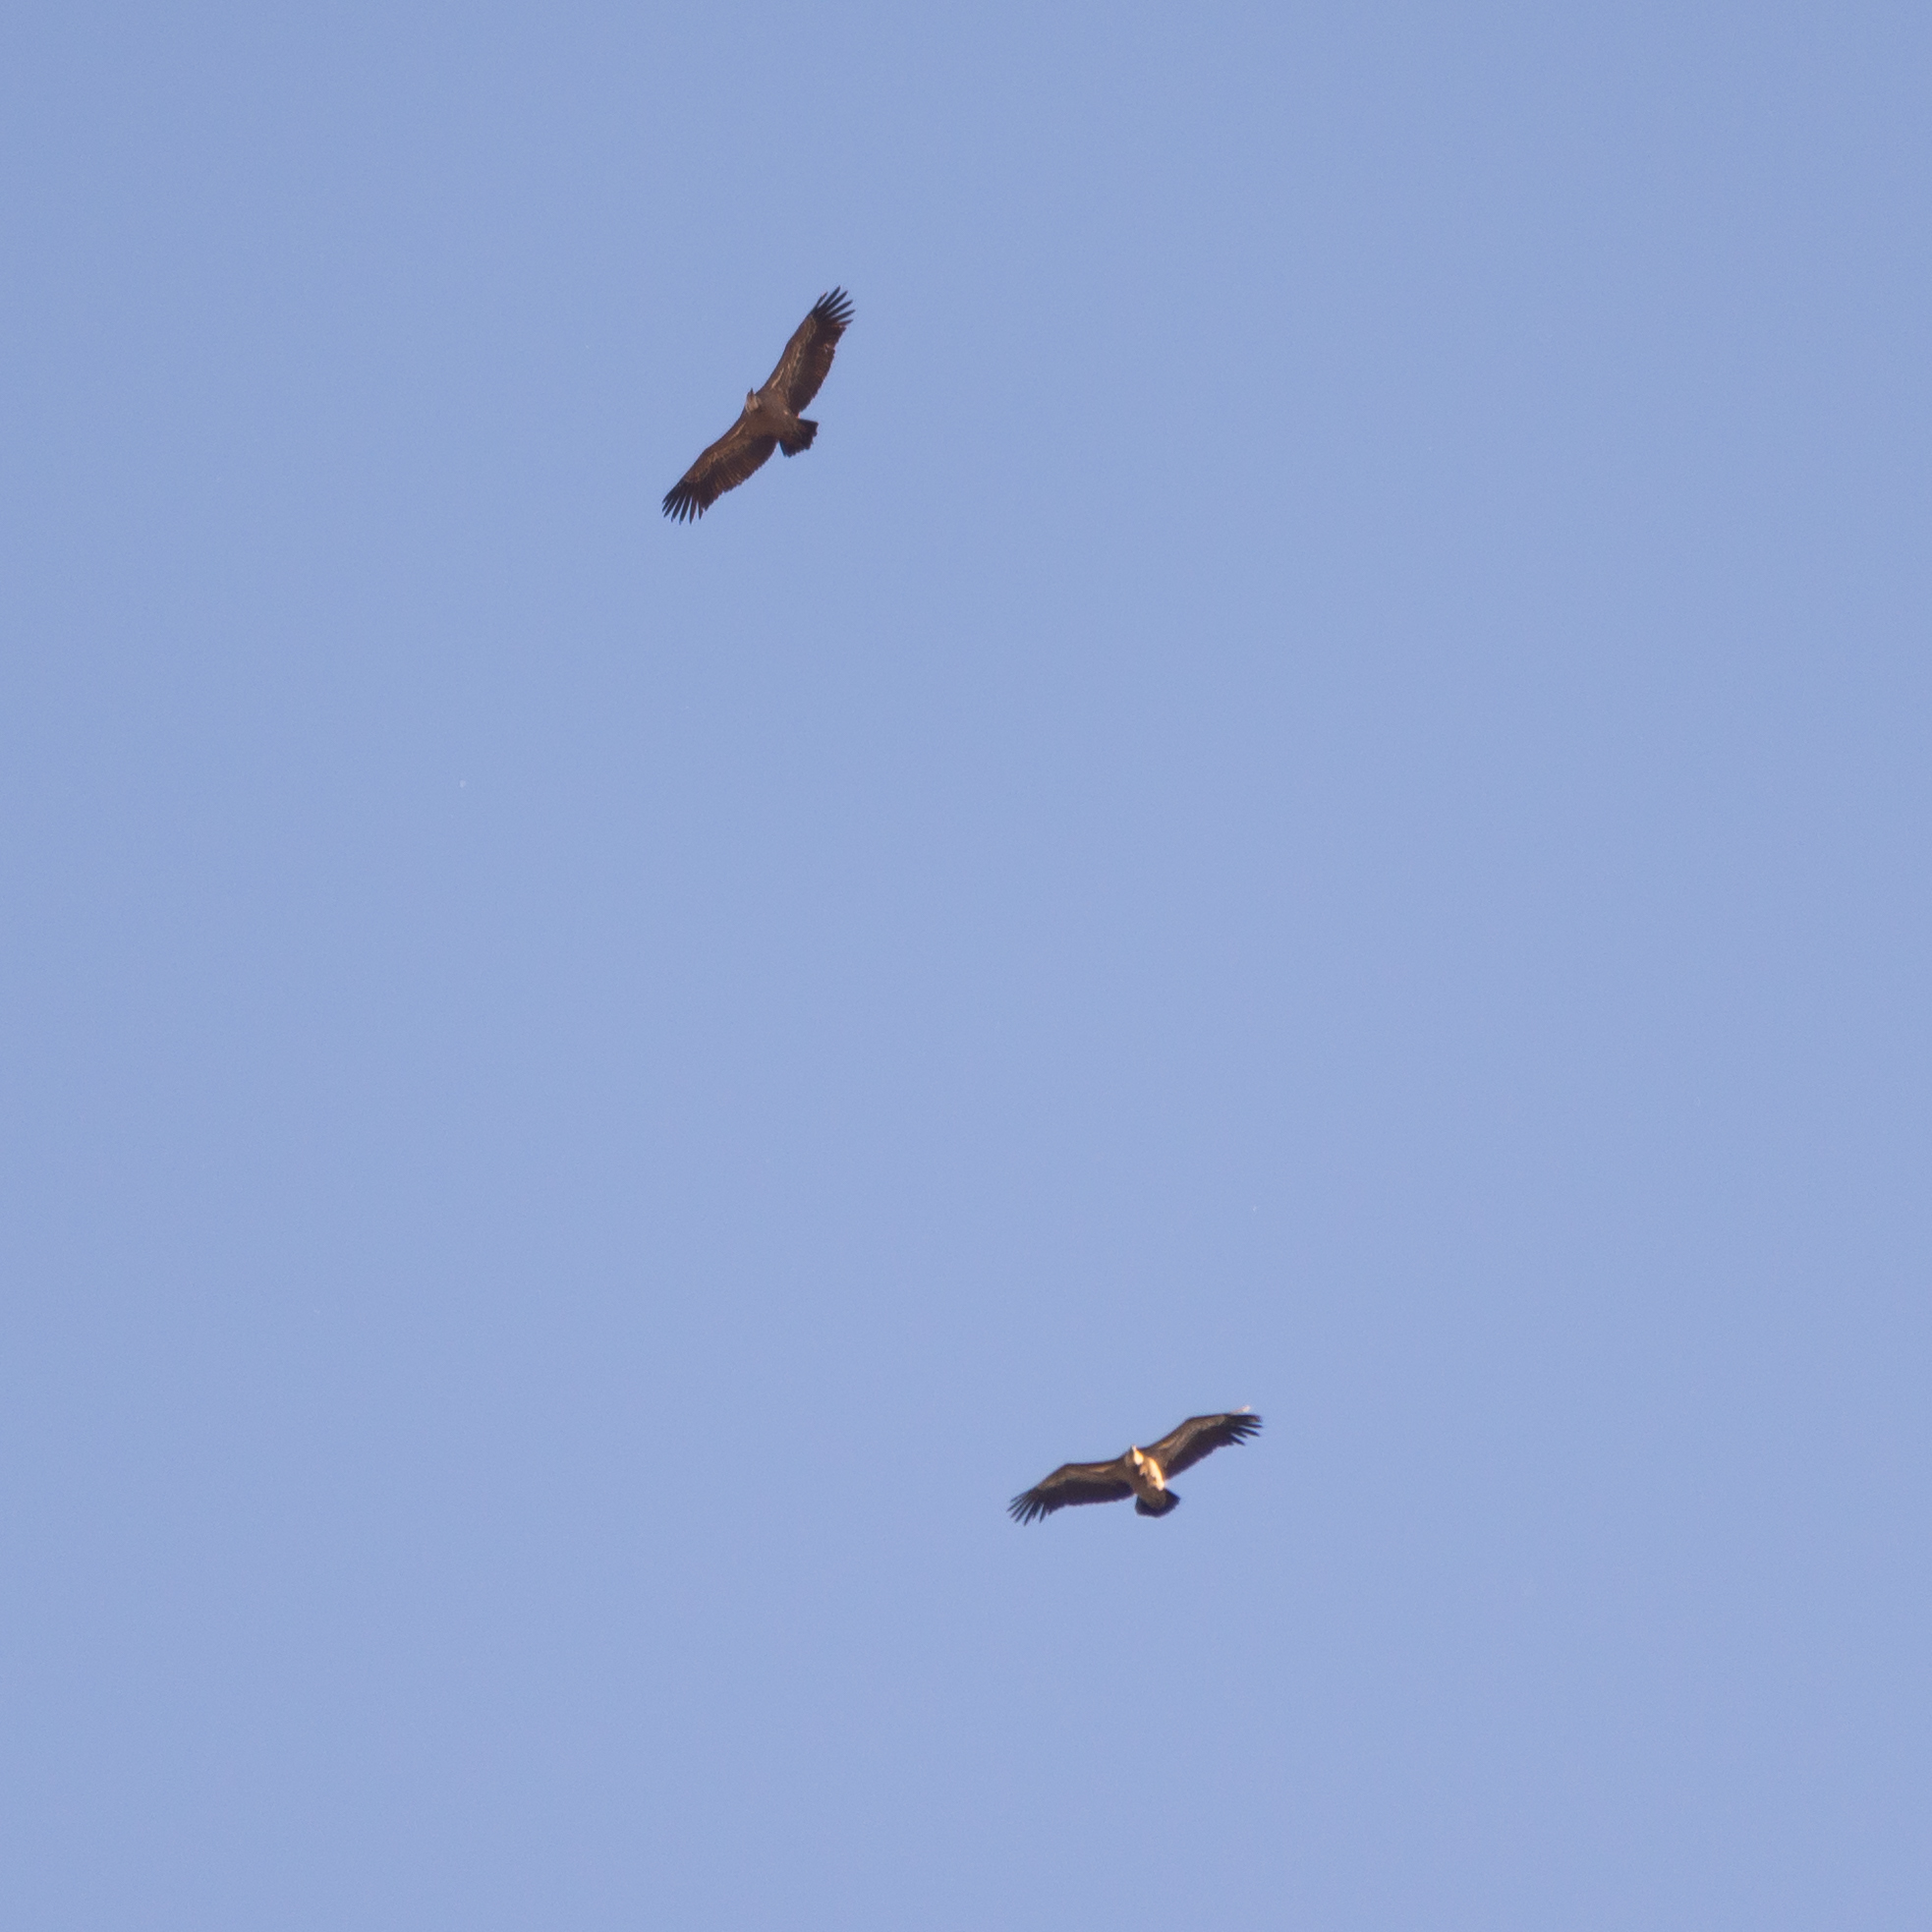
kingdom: Animalia
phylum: Chordata
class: Aves
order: Accipitriformes
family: Accipitridae
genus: Gyps
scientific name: Gyps fulvus
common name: Griffon vulture
